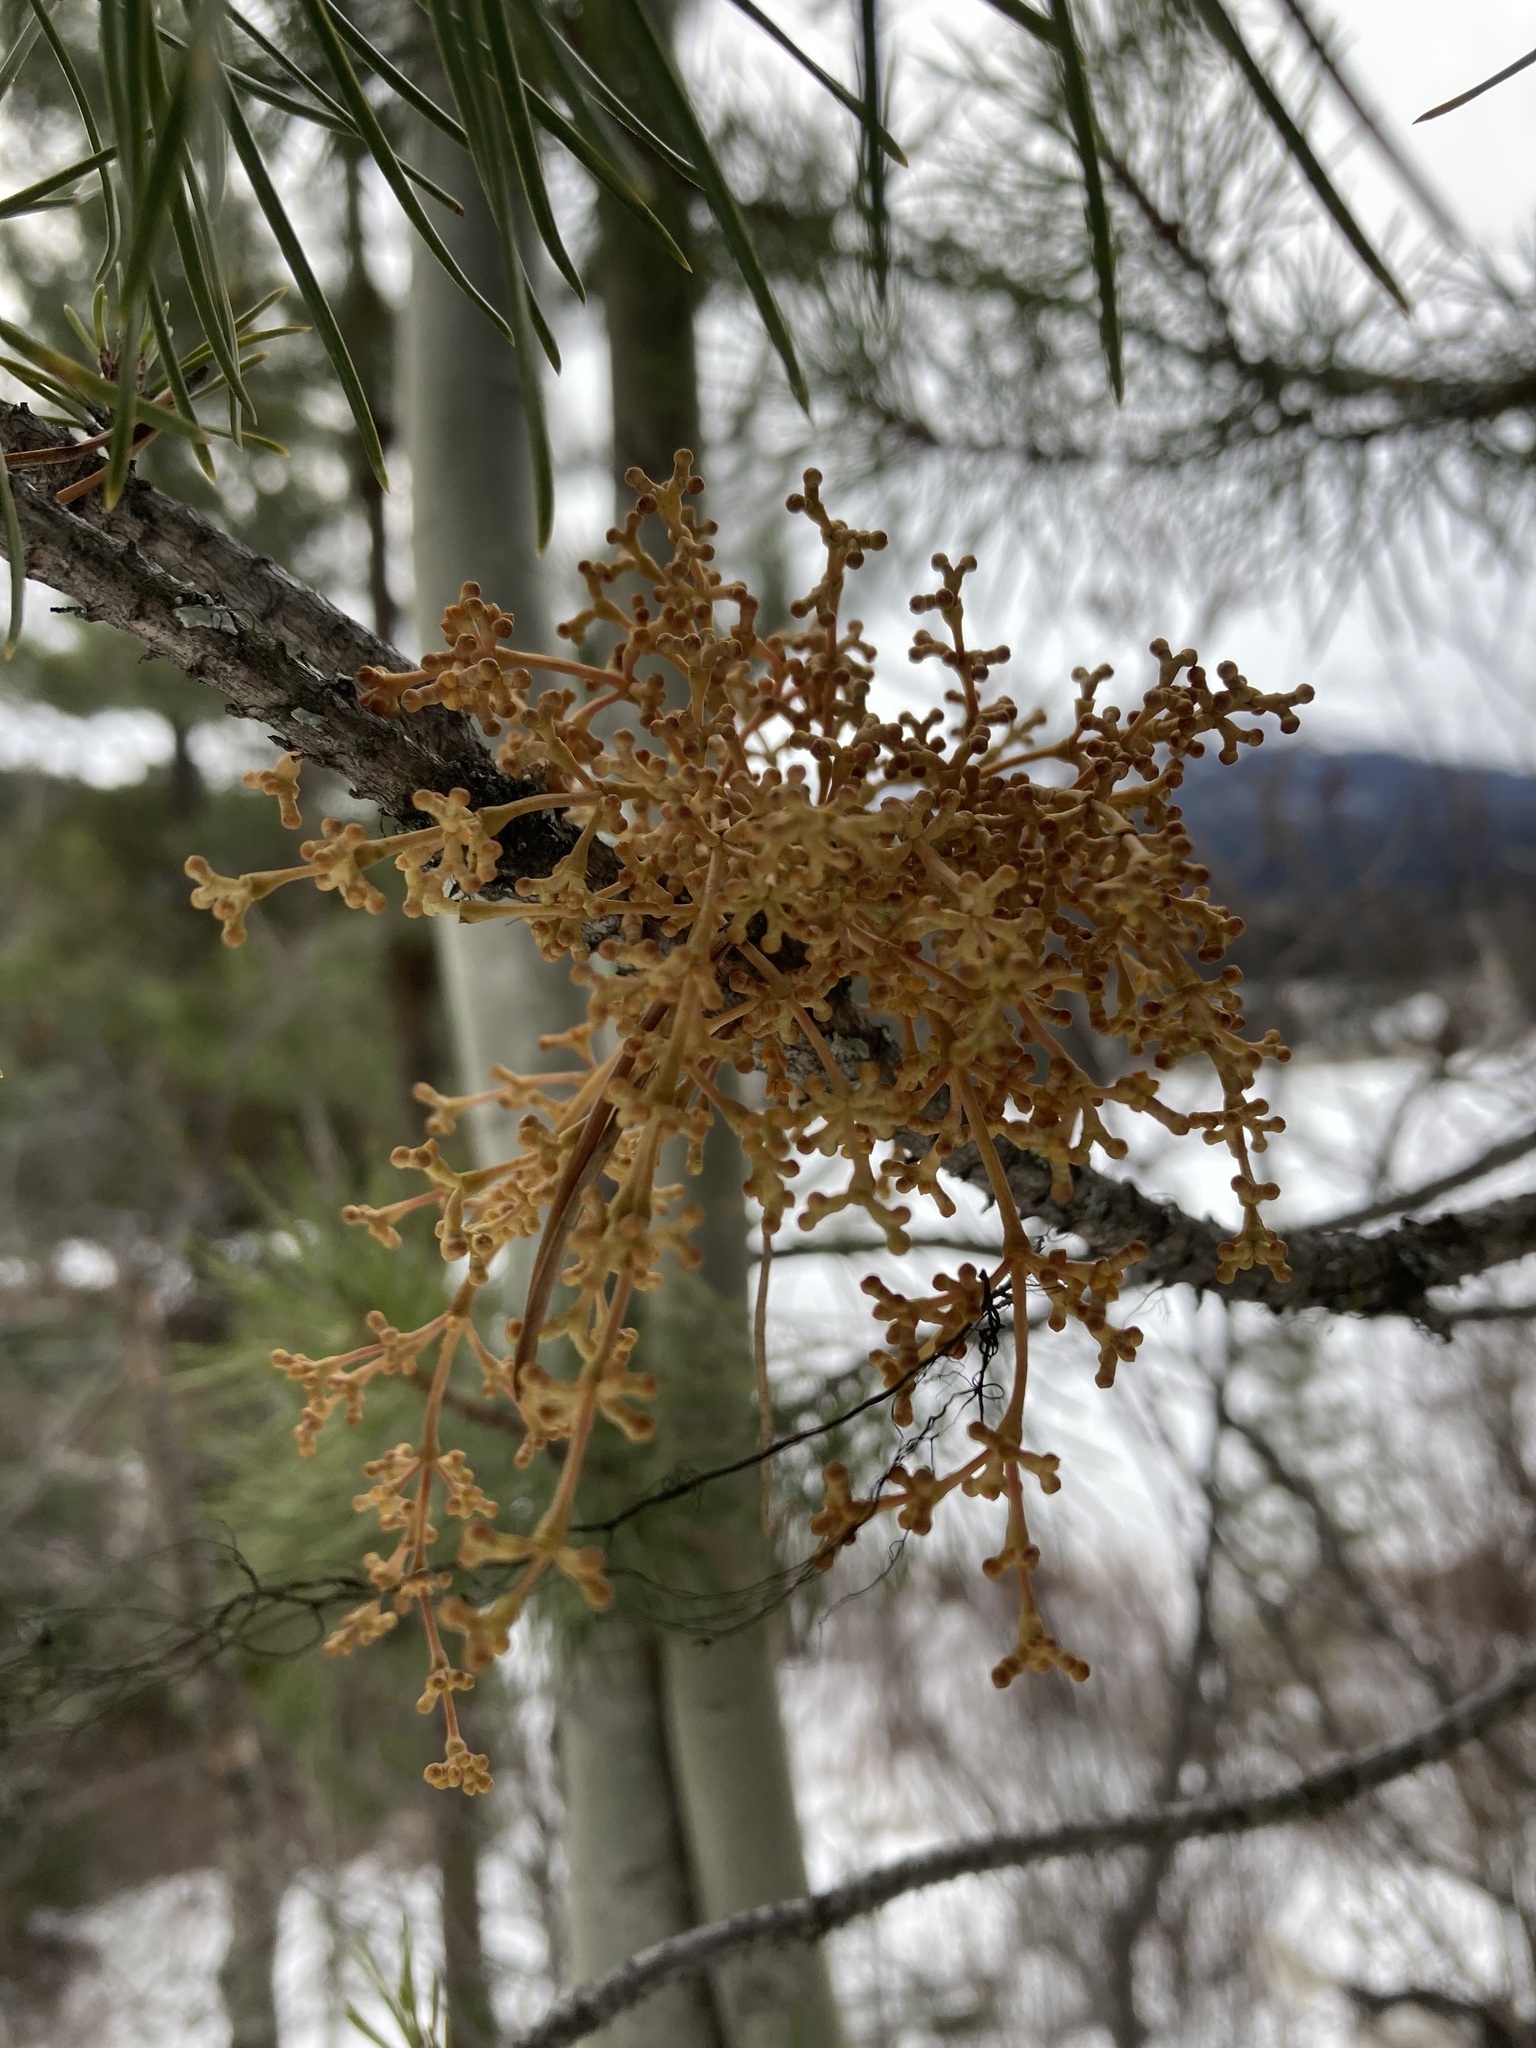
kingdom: Plantae
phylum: Tracheophyta
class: Magnoliopsida
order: Santalales
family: Viscaceae
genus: Arceuthobium
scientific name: Arceuthobium americanum
